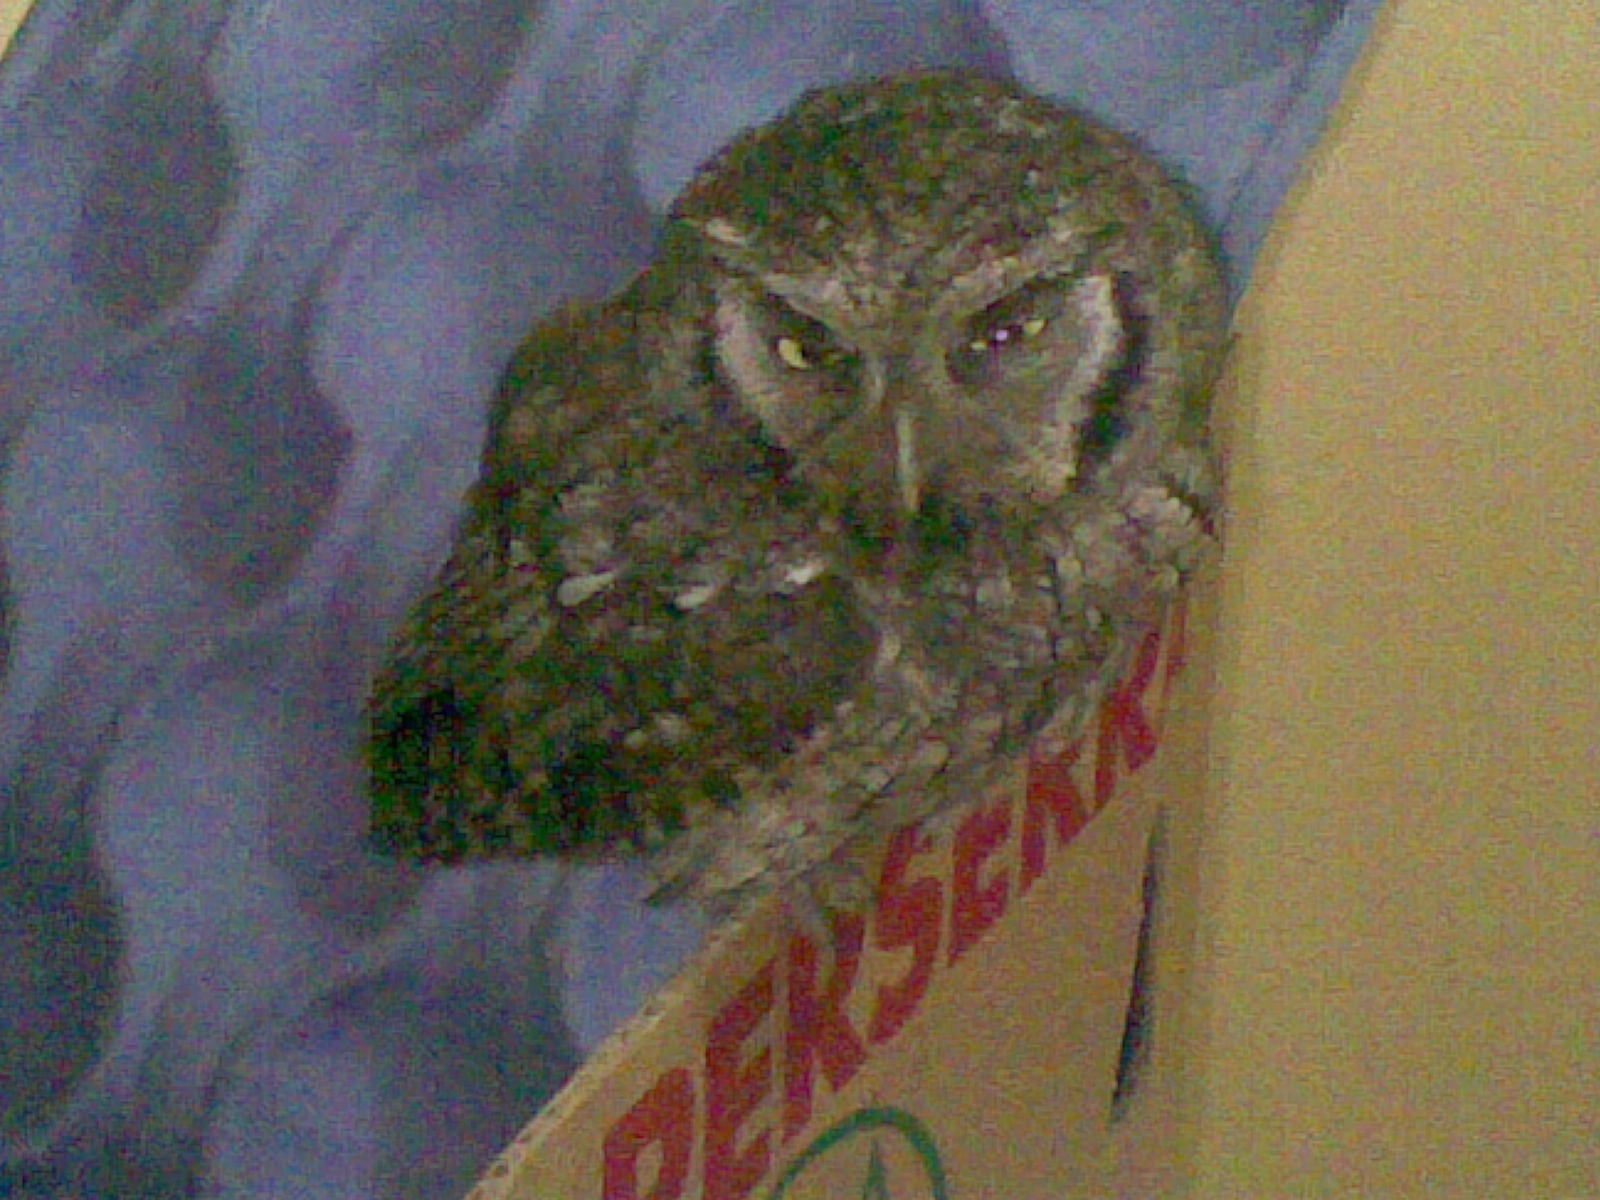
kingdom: Animalia
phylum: Chordata
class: Aves
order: Strigiformes
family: Strigidae
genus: Megascops
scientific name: Megascops choliba
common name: Tropical screech-owl
